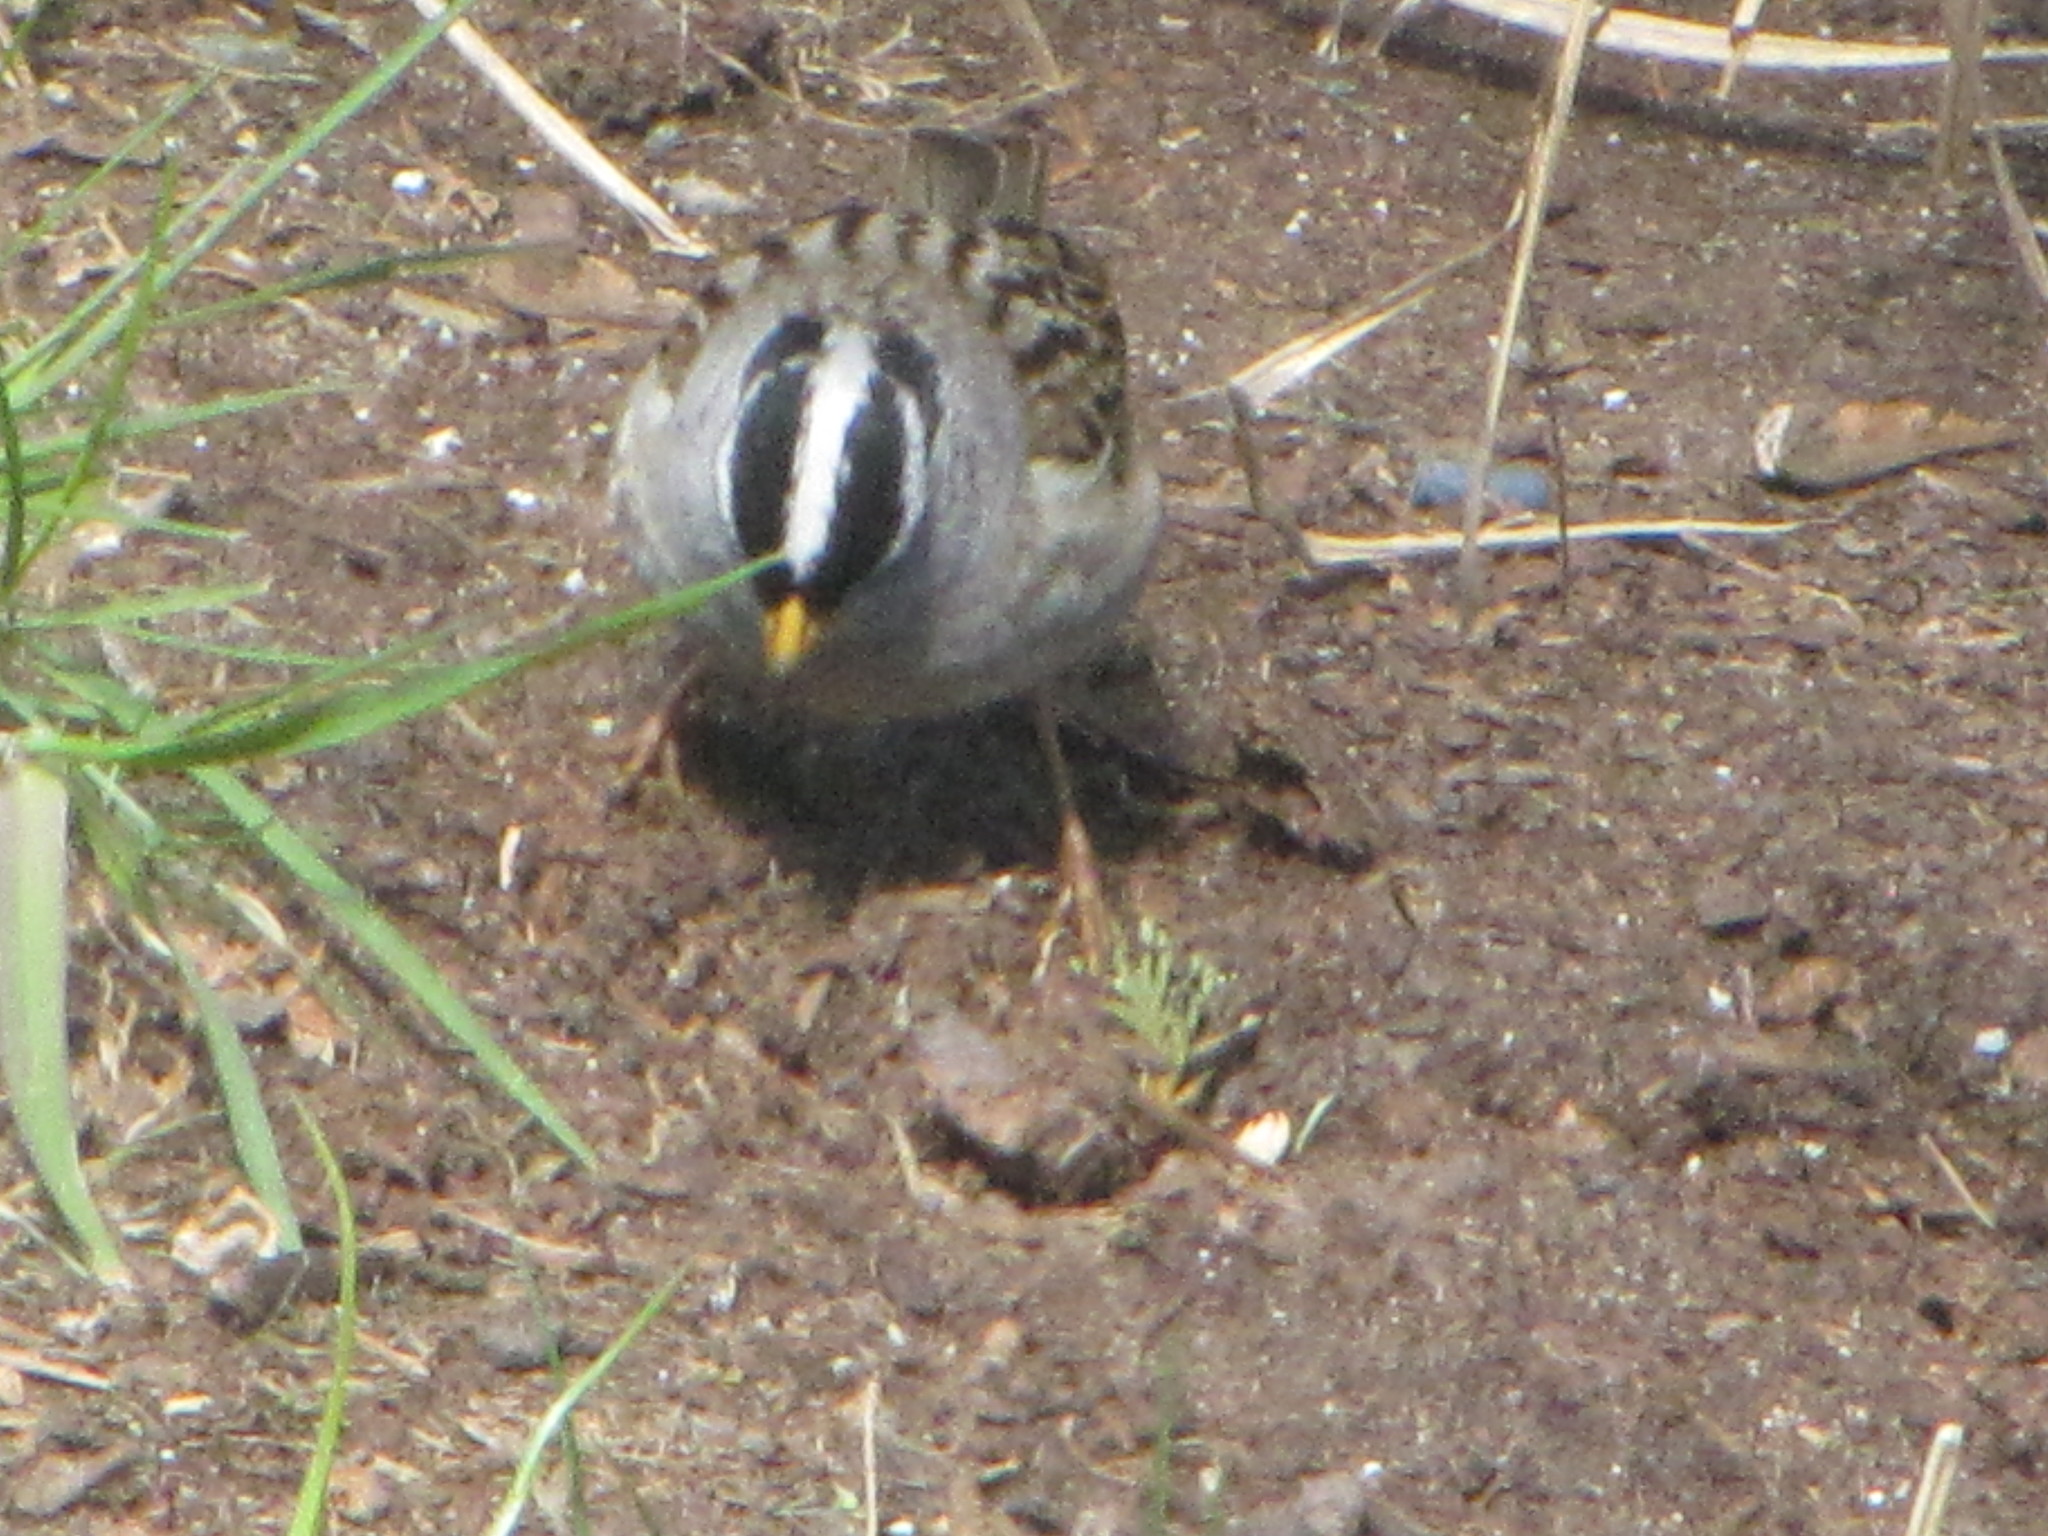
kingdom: Animalia
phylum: Chordata
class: Aves
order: Passeriformes
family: Passerellidae
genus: Zonotrichia
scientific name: Zonotrichia leucophrys
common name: White-crowned sparrow
